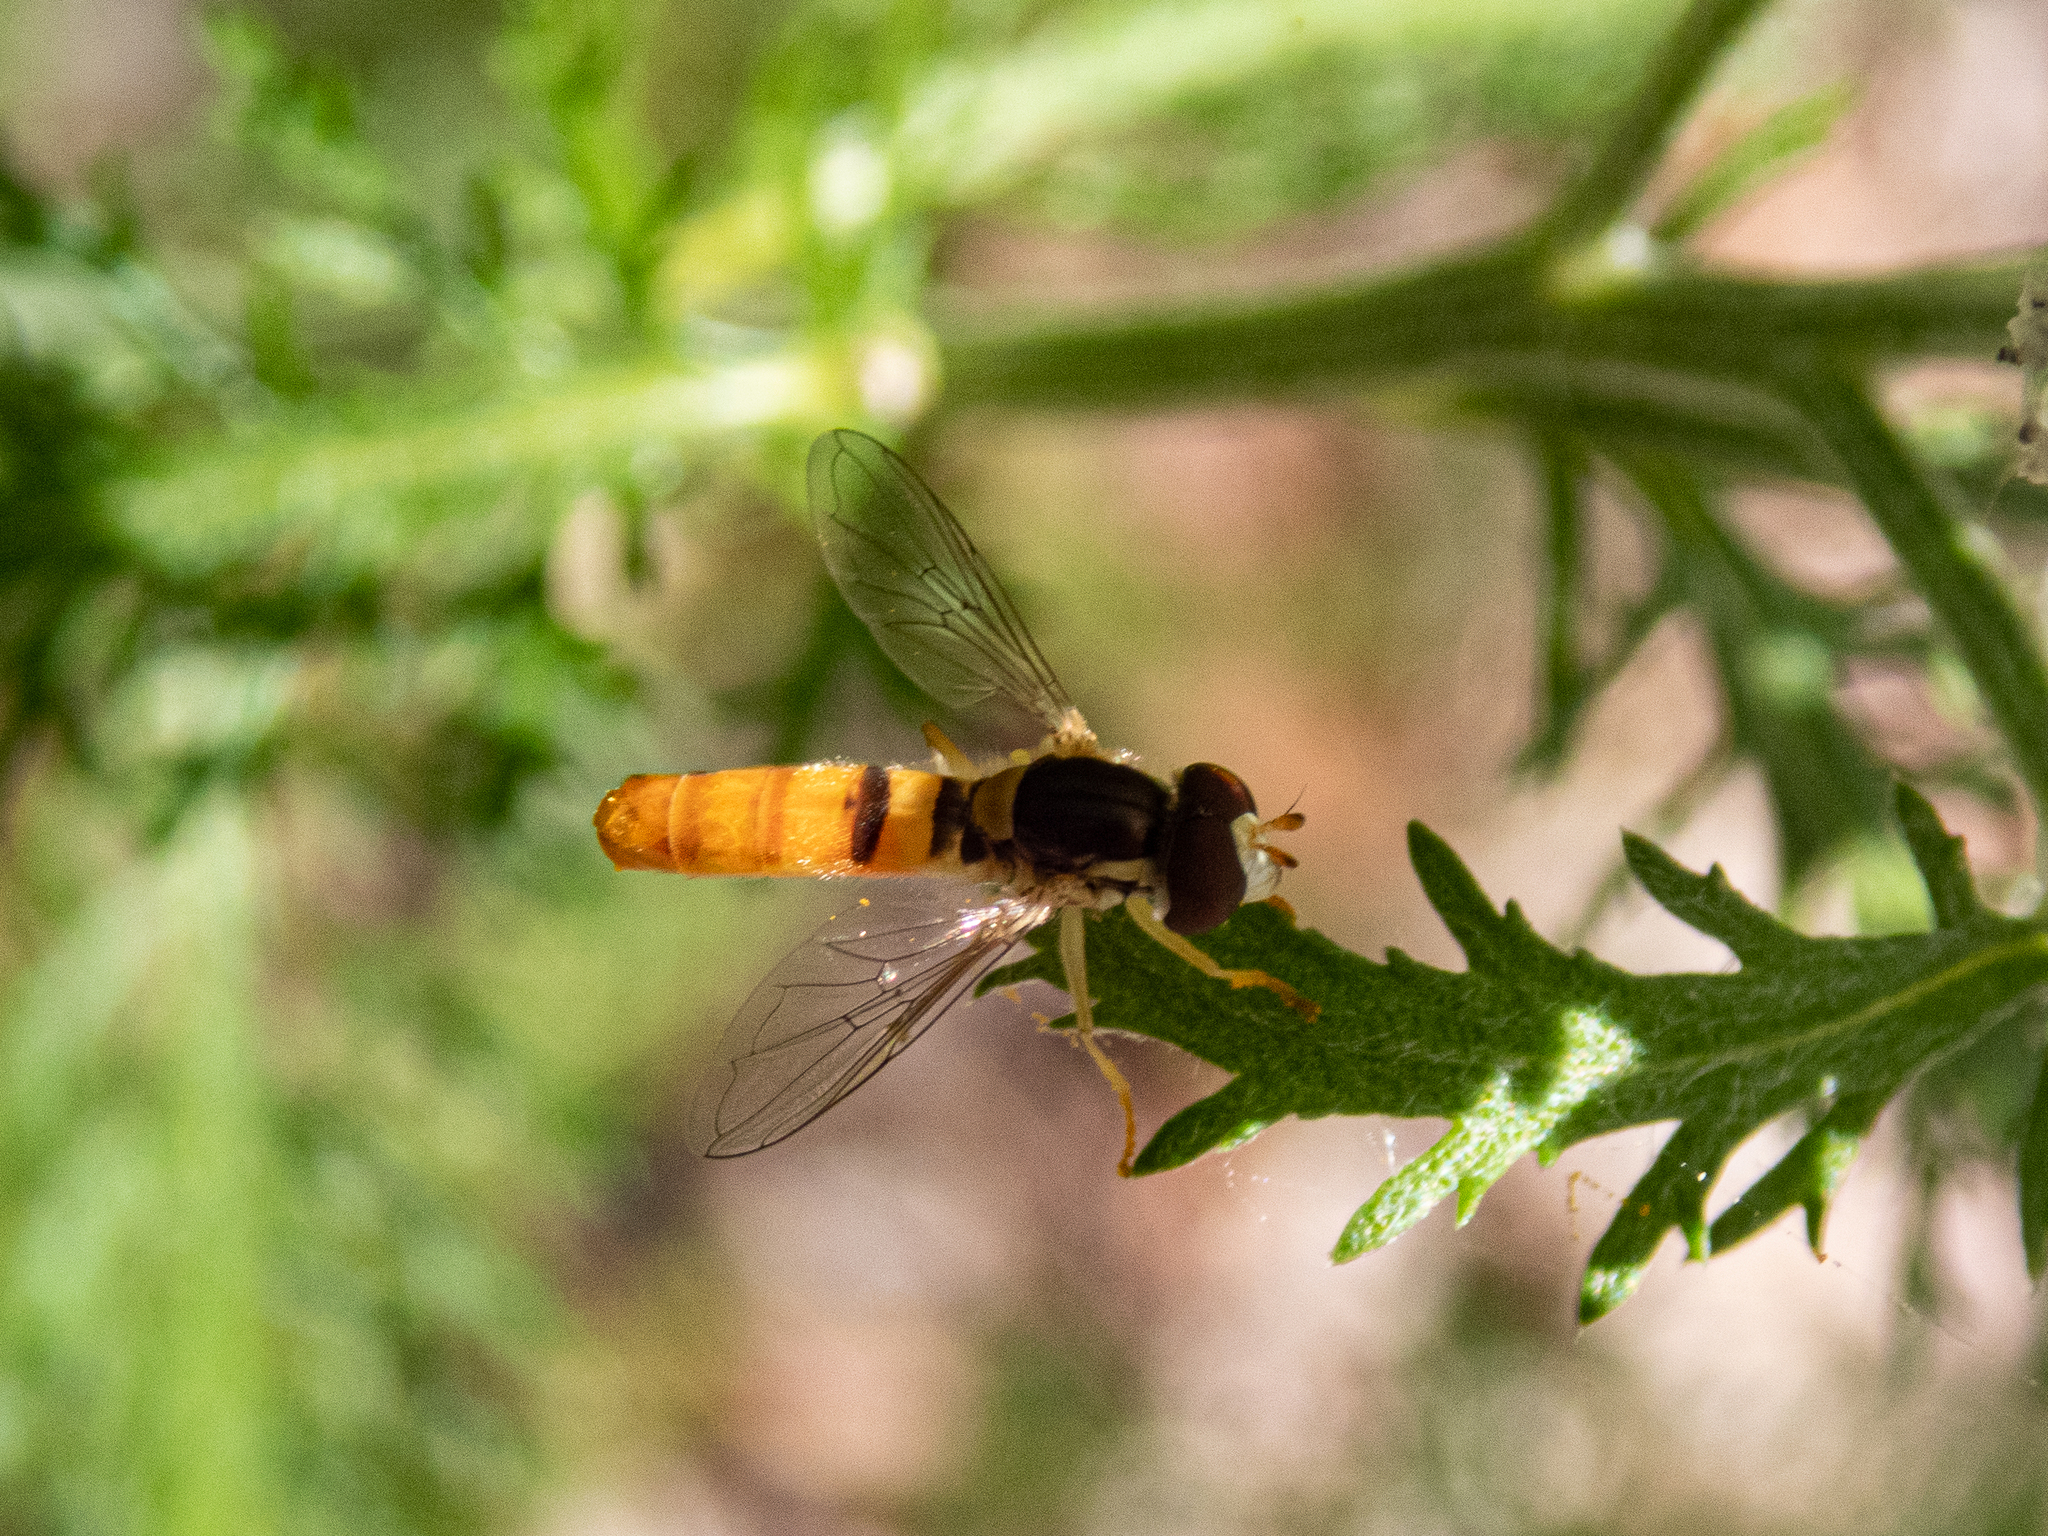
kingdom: Animalia
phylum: Arthropoda
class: Insecta
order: Diptera
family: Syrphidae
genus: Sphaerophoria
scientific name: Sphaerophoria contigua
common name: Tufted globetail
